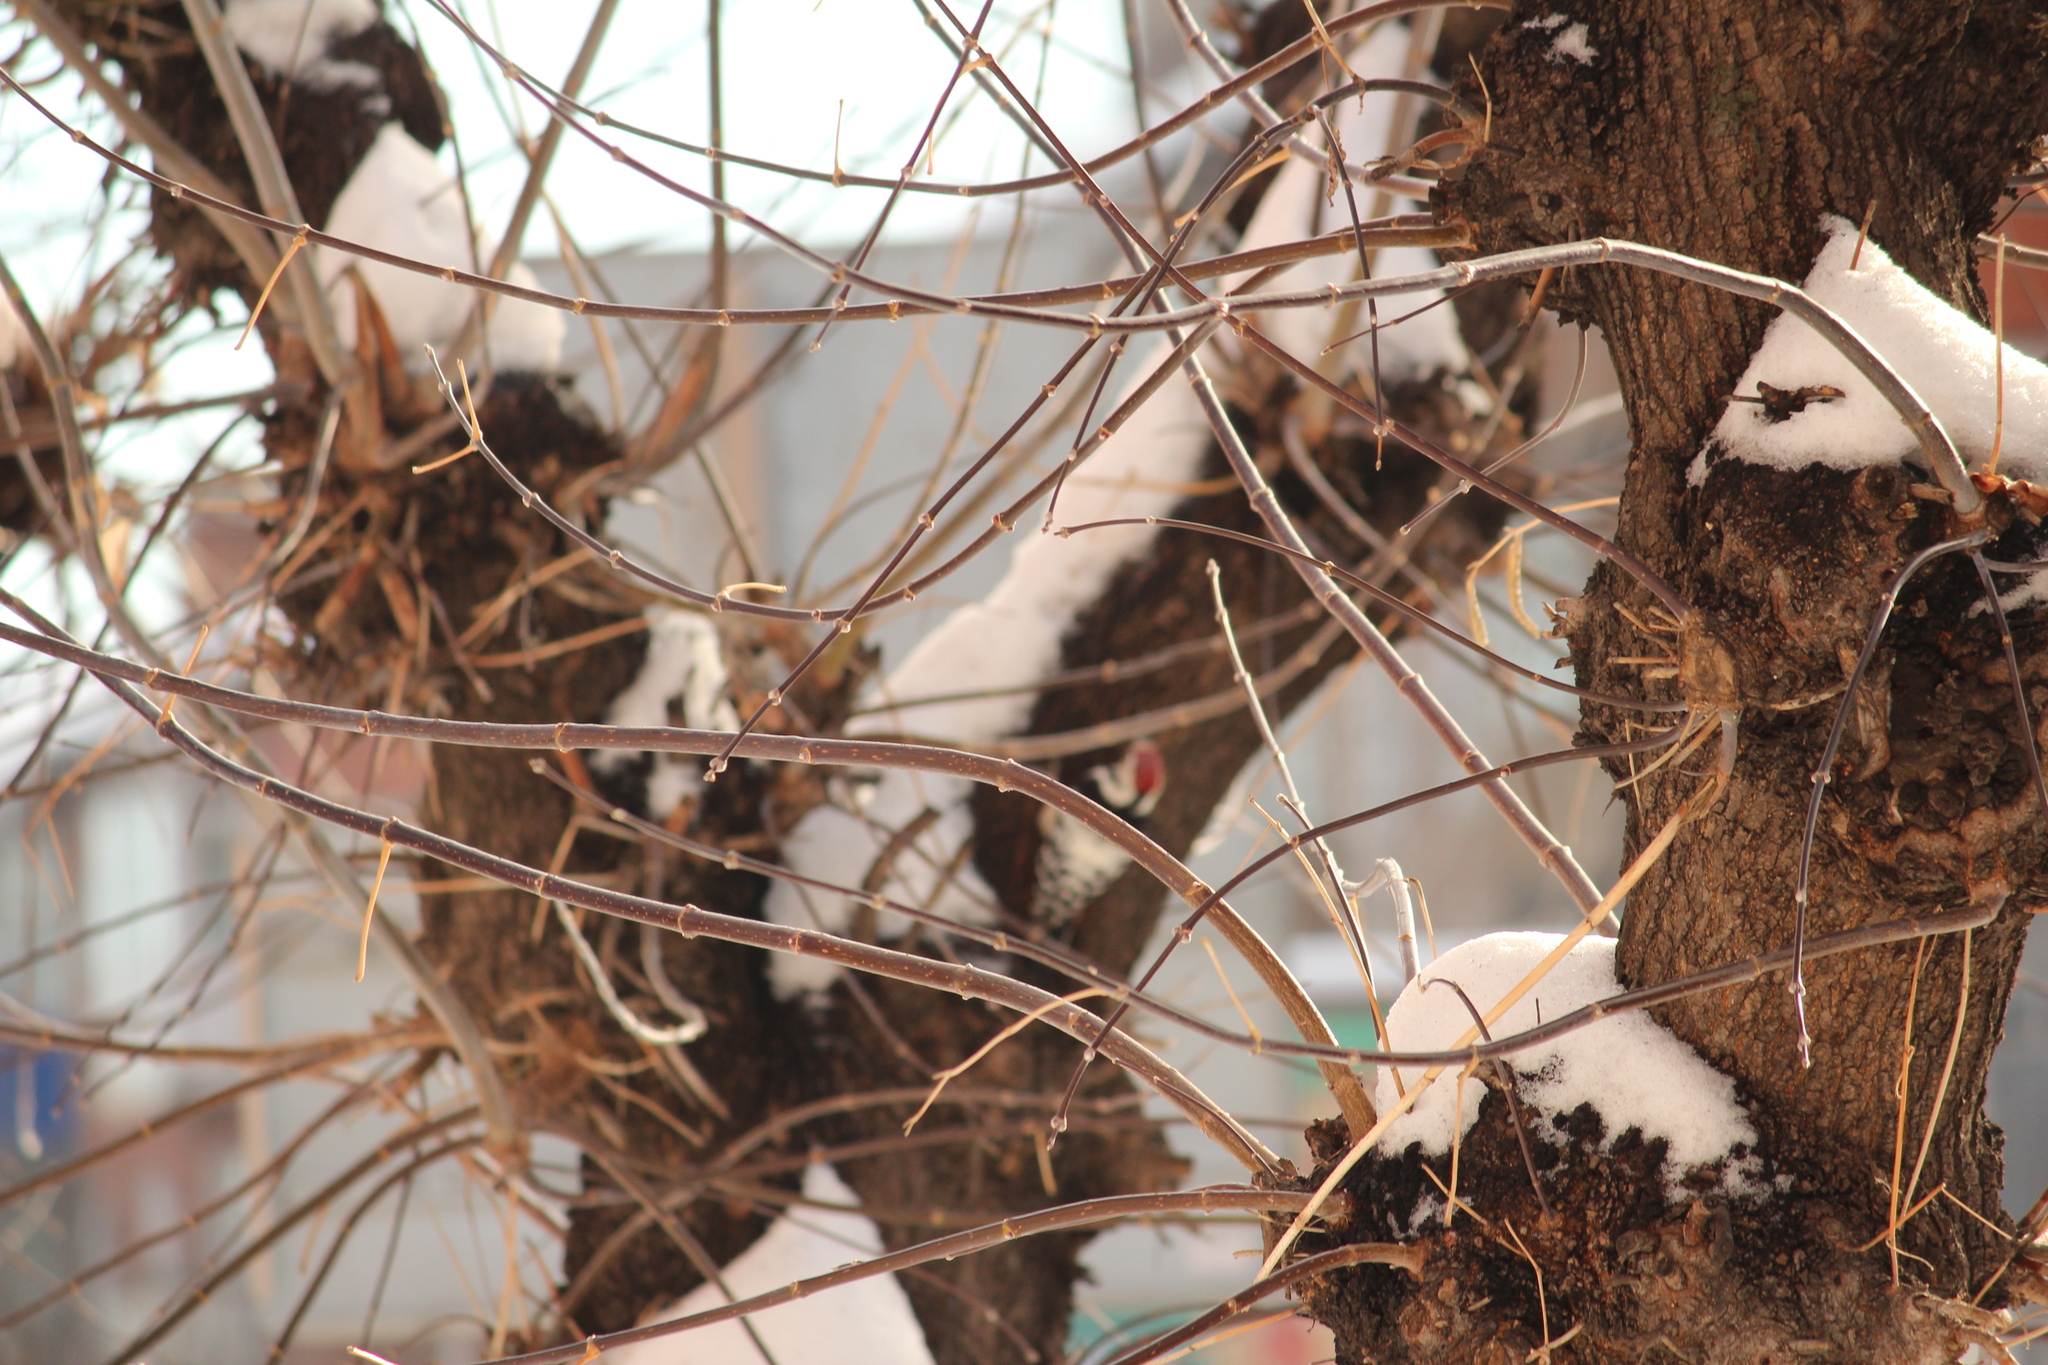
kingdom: Animalia
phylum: Chordata
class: Aves
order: Piciformes
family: Picidae
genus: Dendrocopos
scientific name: Dendrocopos leucotos
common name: White-backed woodpecker
